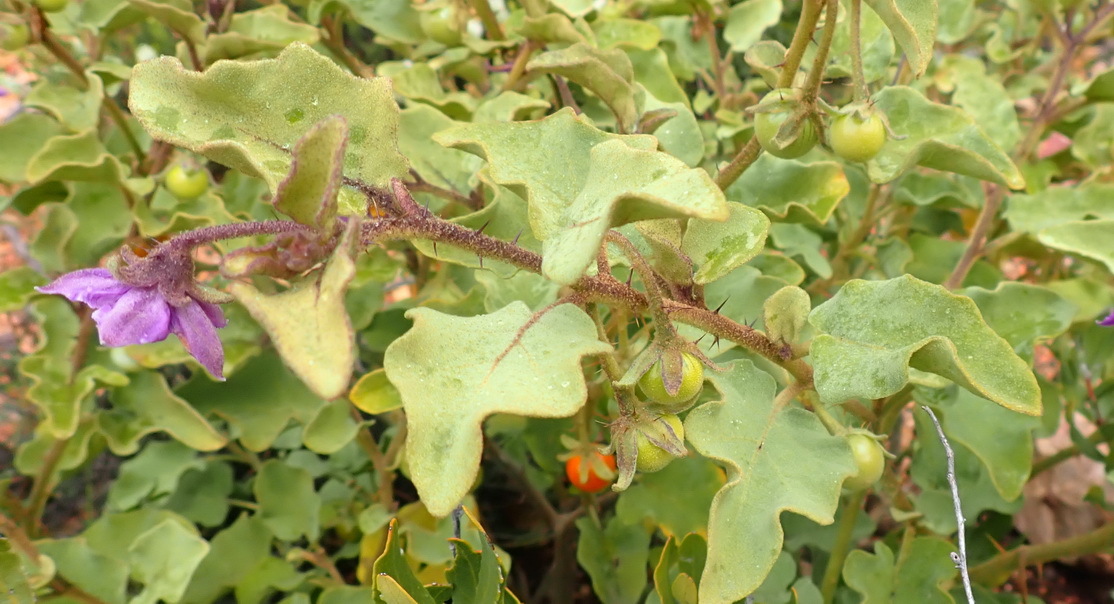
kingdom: Plantae
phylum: Tracheophyta
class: Magnoliopsida
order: Solanales
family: Solanaceae
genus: Solanum
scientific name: Solanum tomentosum
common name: Wild aubergine
